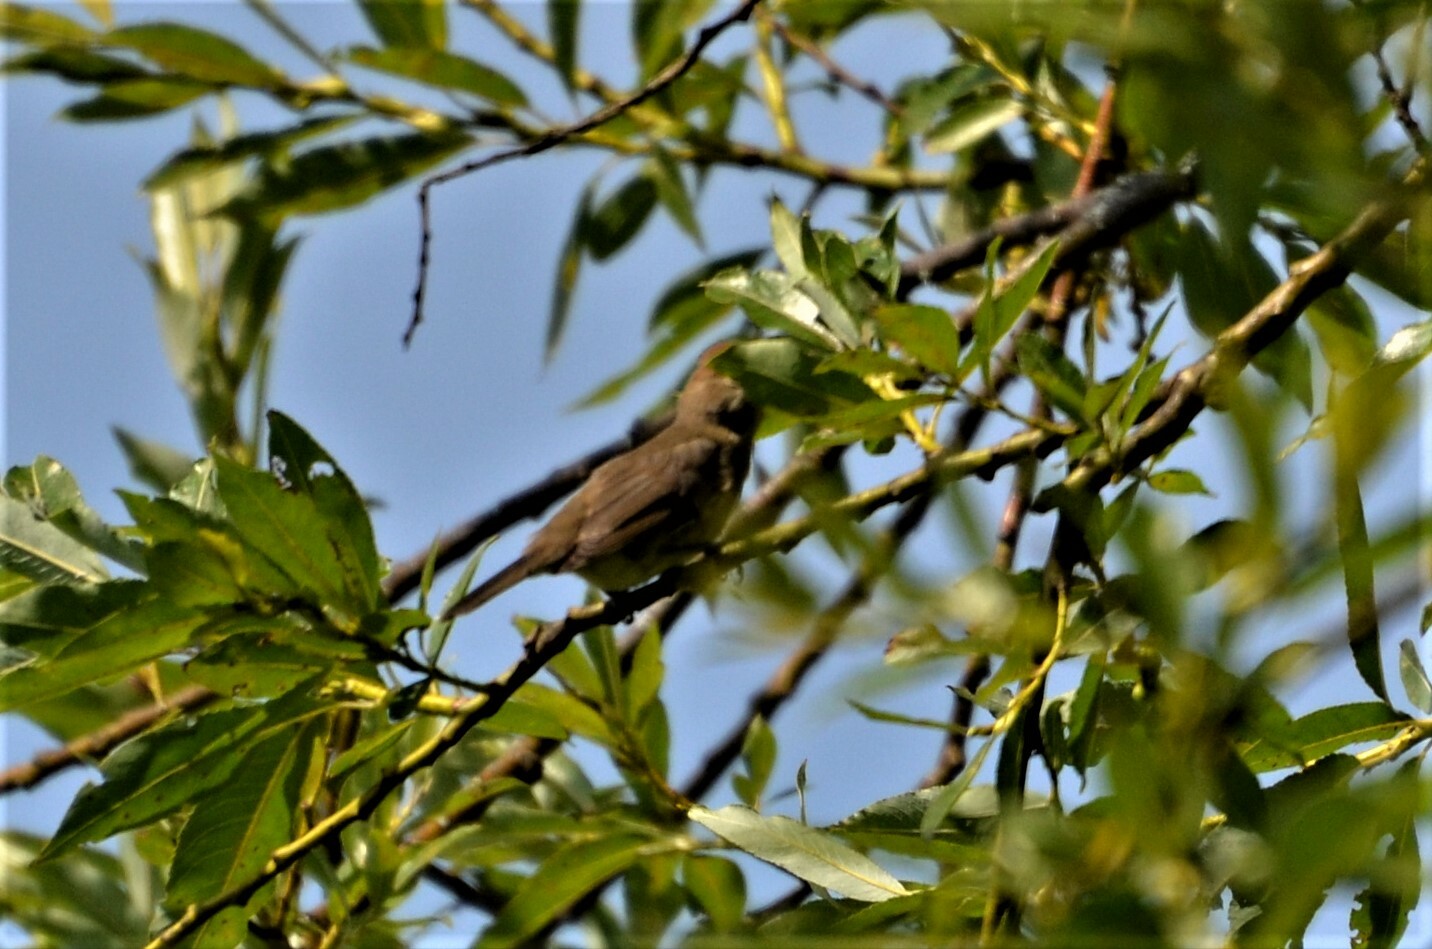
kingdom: Animalia
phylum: Chordata
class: Aves
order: Passeriformes
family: Sylviidae
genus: Sylvia
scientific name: Sylvia atricapilla
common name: Eurasian blackcap
